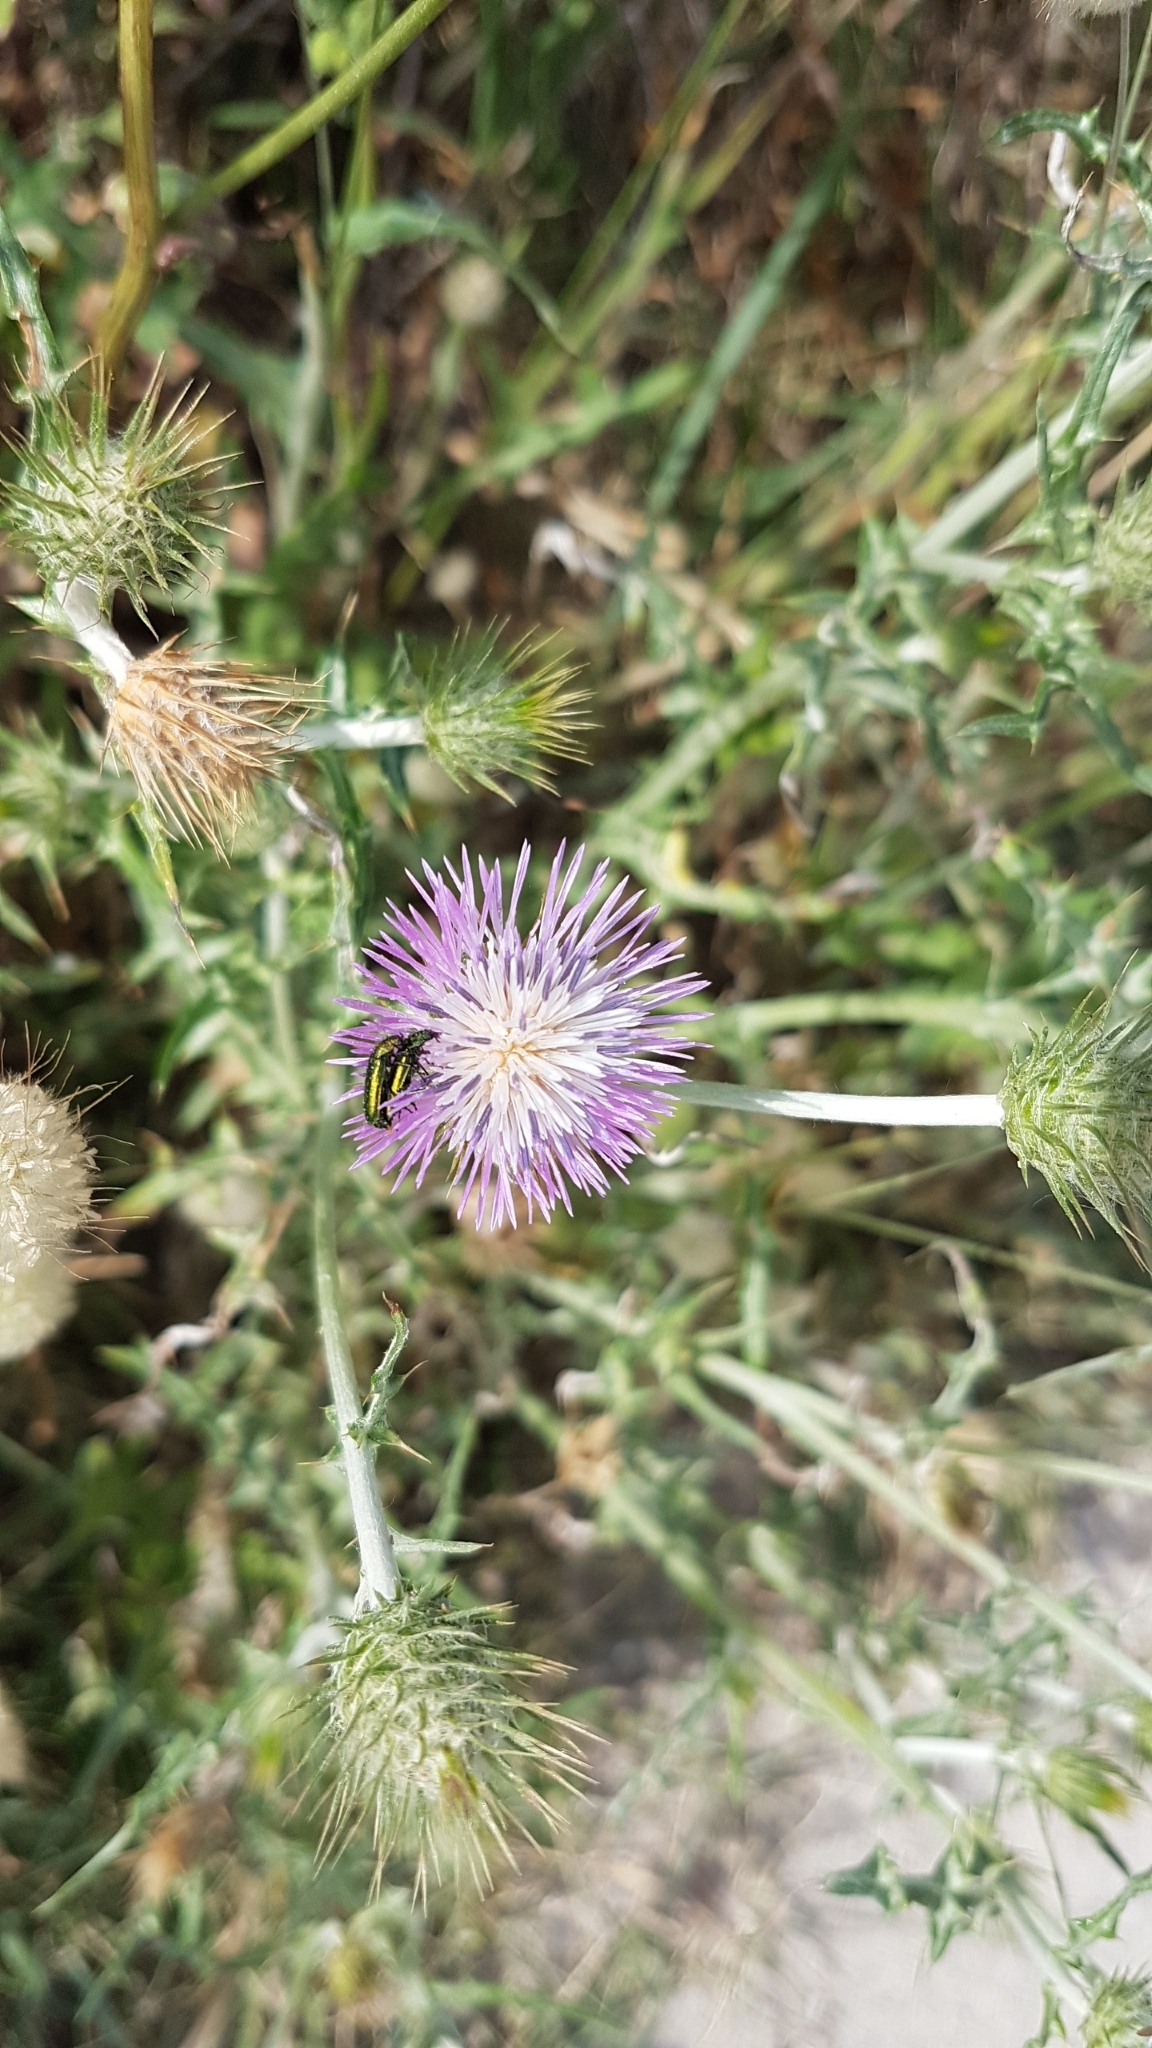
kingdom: Plantae
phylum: Tracheophyta
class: Magnoliopsida
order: Asterales
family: Asteraceae
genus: Galactites
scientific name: Galactites tomentosa
